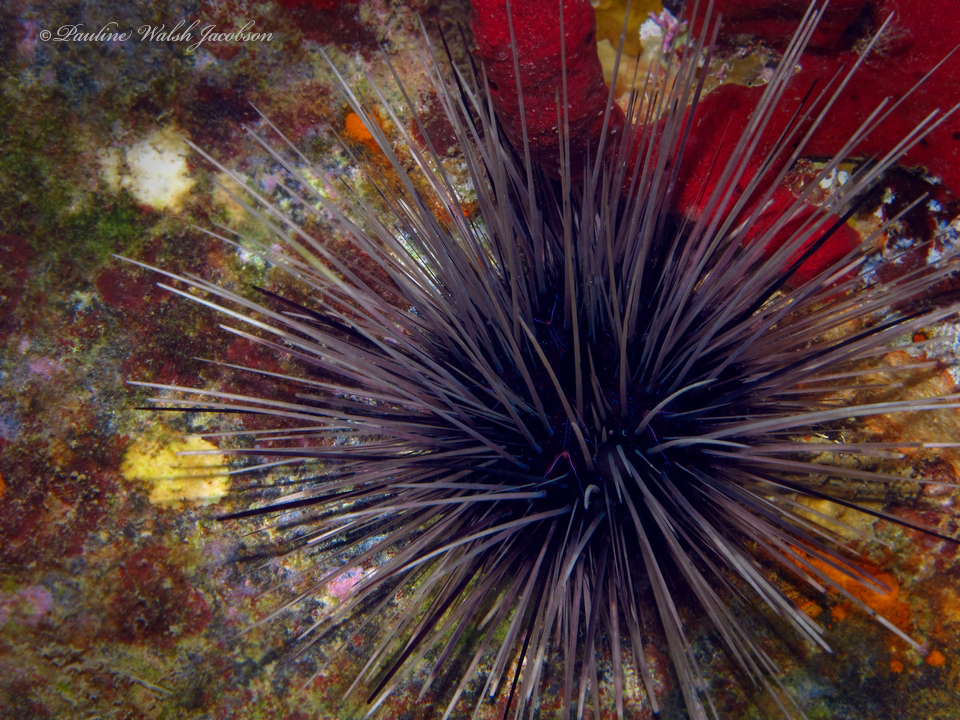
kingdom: Animalia
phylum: Echinodermata
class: Echinoidea
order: Diadematoida
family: Diadematidae
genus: Diadema
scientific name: Diadema antillarum
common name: Spiny urchin
